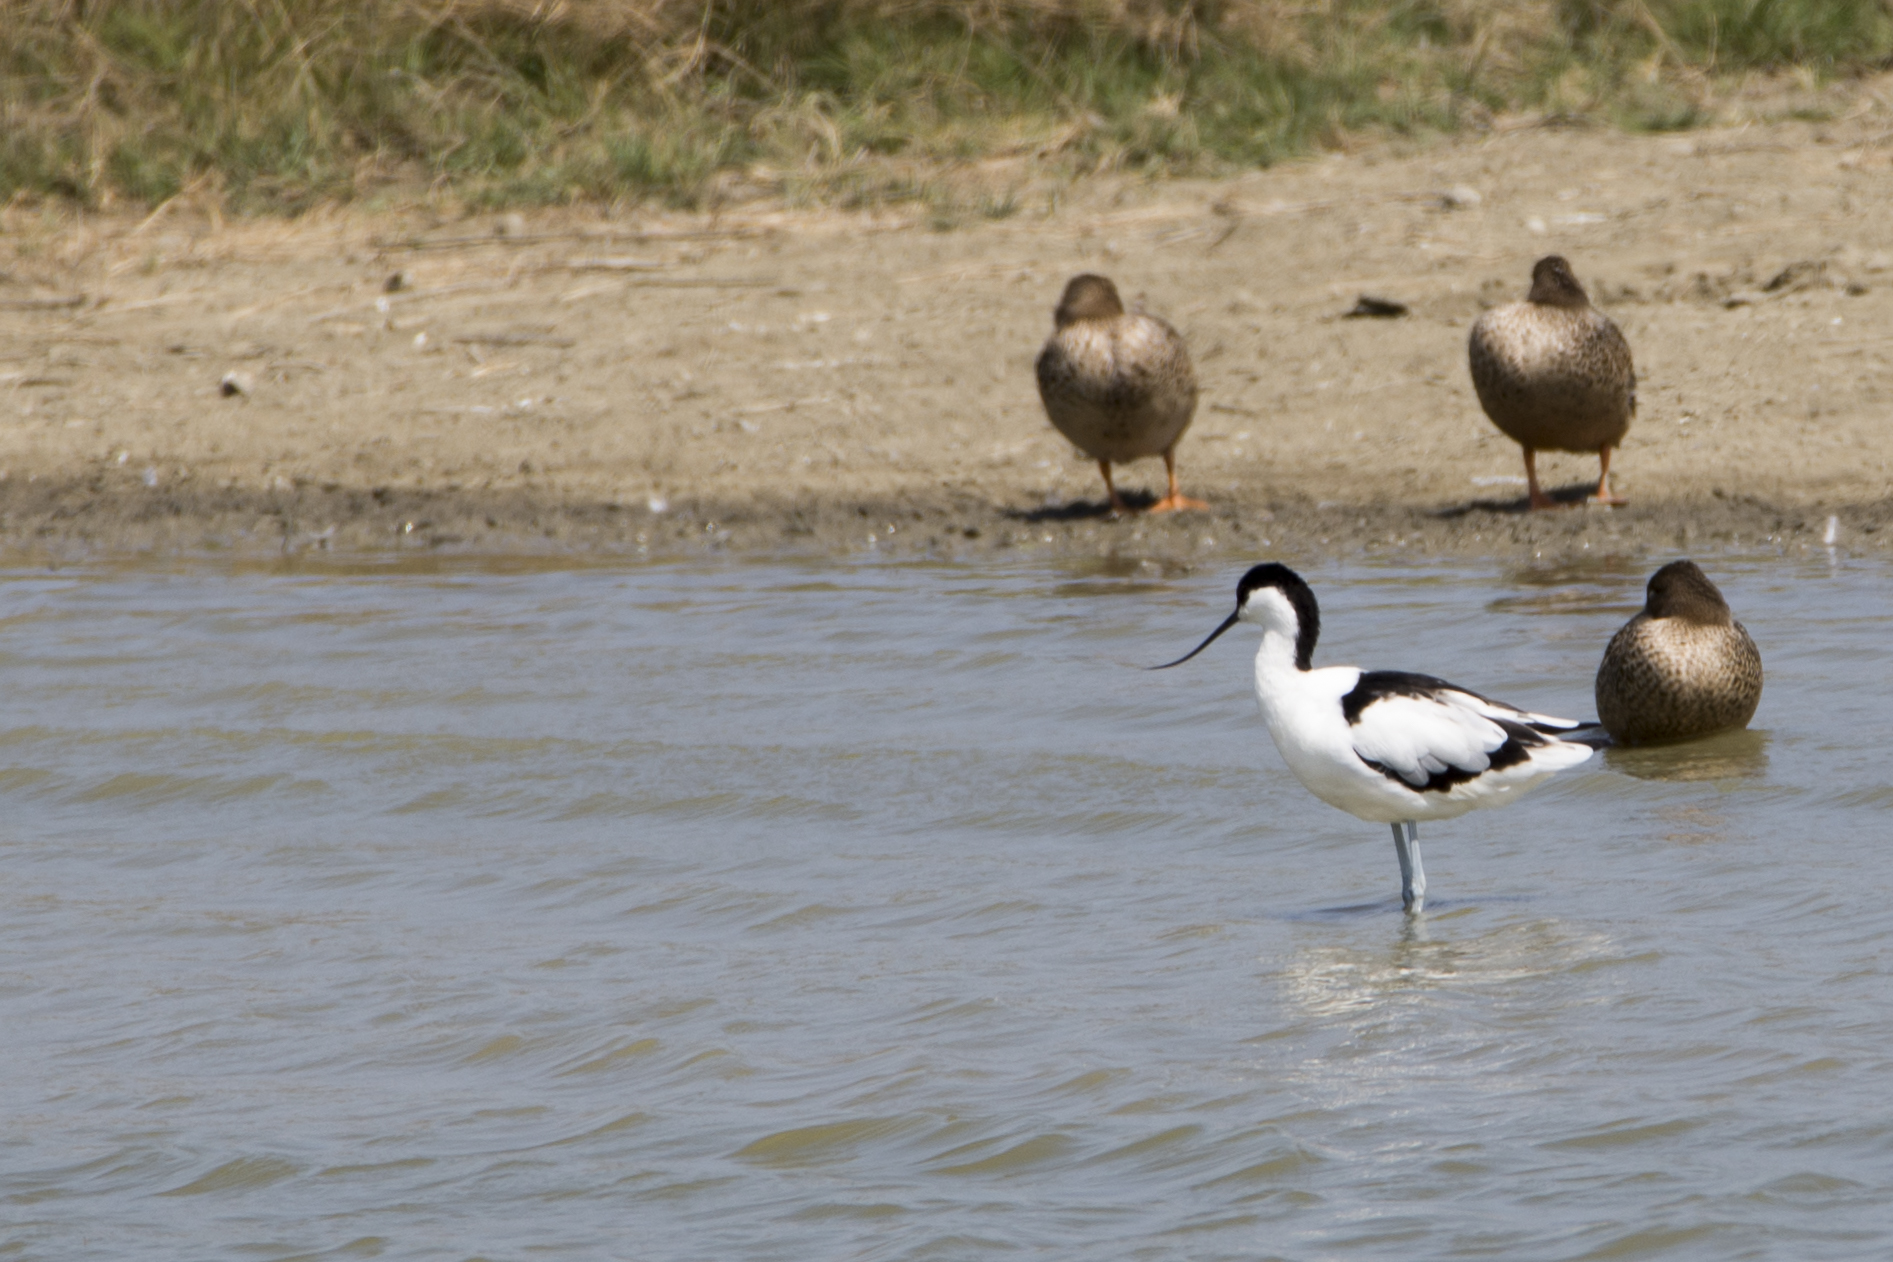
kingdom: Animalia
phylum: Chordata
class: Aves
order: Charadriiformes
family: Recurvirostridae
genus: Recurvirostra
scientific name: Recurvirostra avosetta
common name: Pied avocet
